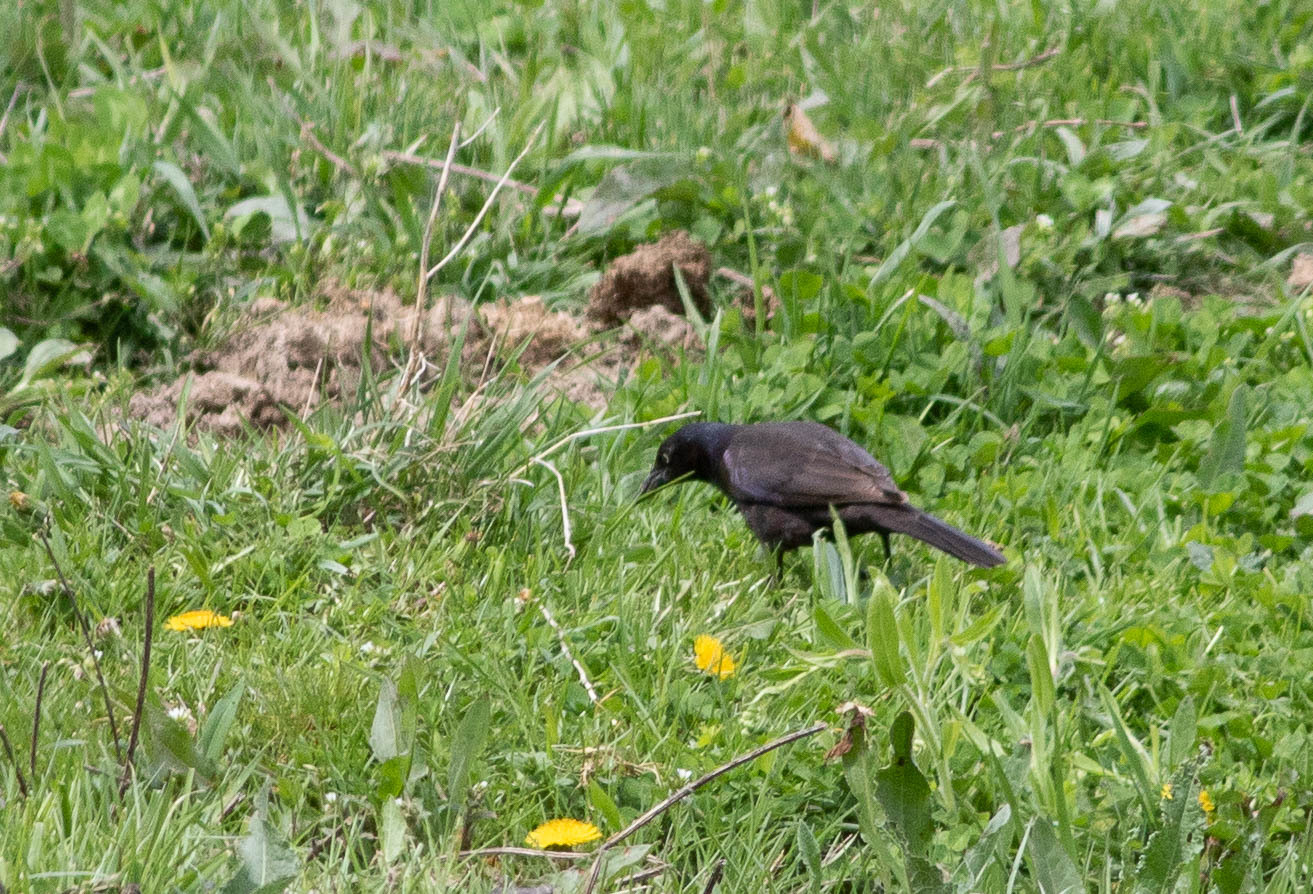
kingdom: Animalia
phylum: Chordata
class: Aves
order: Passeriformes
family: Icteridae
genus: Quiscalus
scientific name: Quiscalus quiscula
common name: Common grackle
